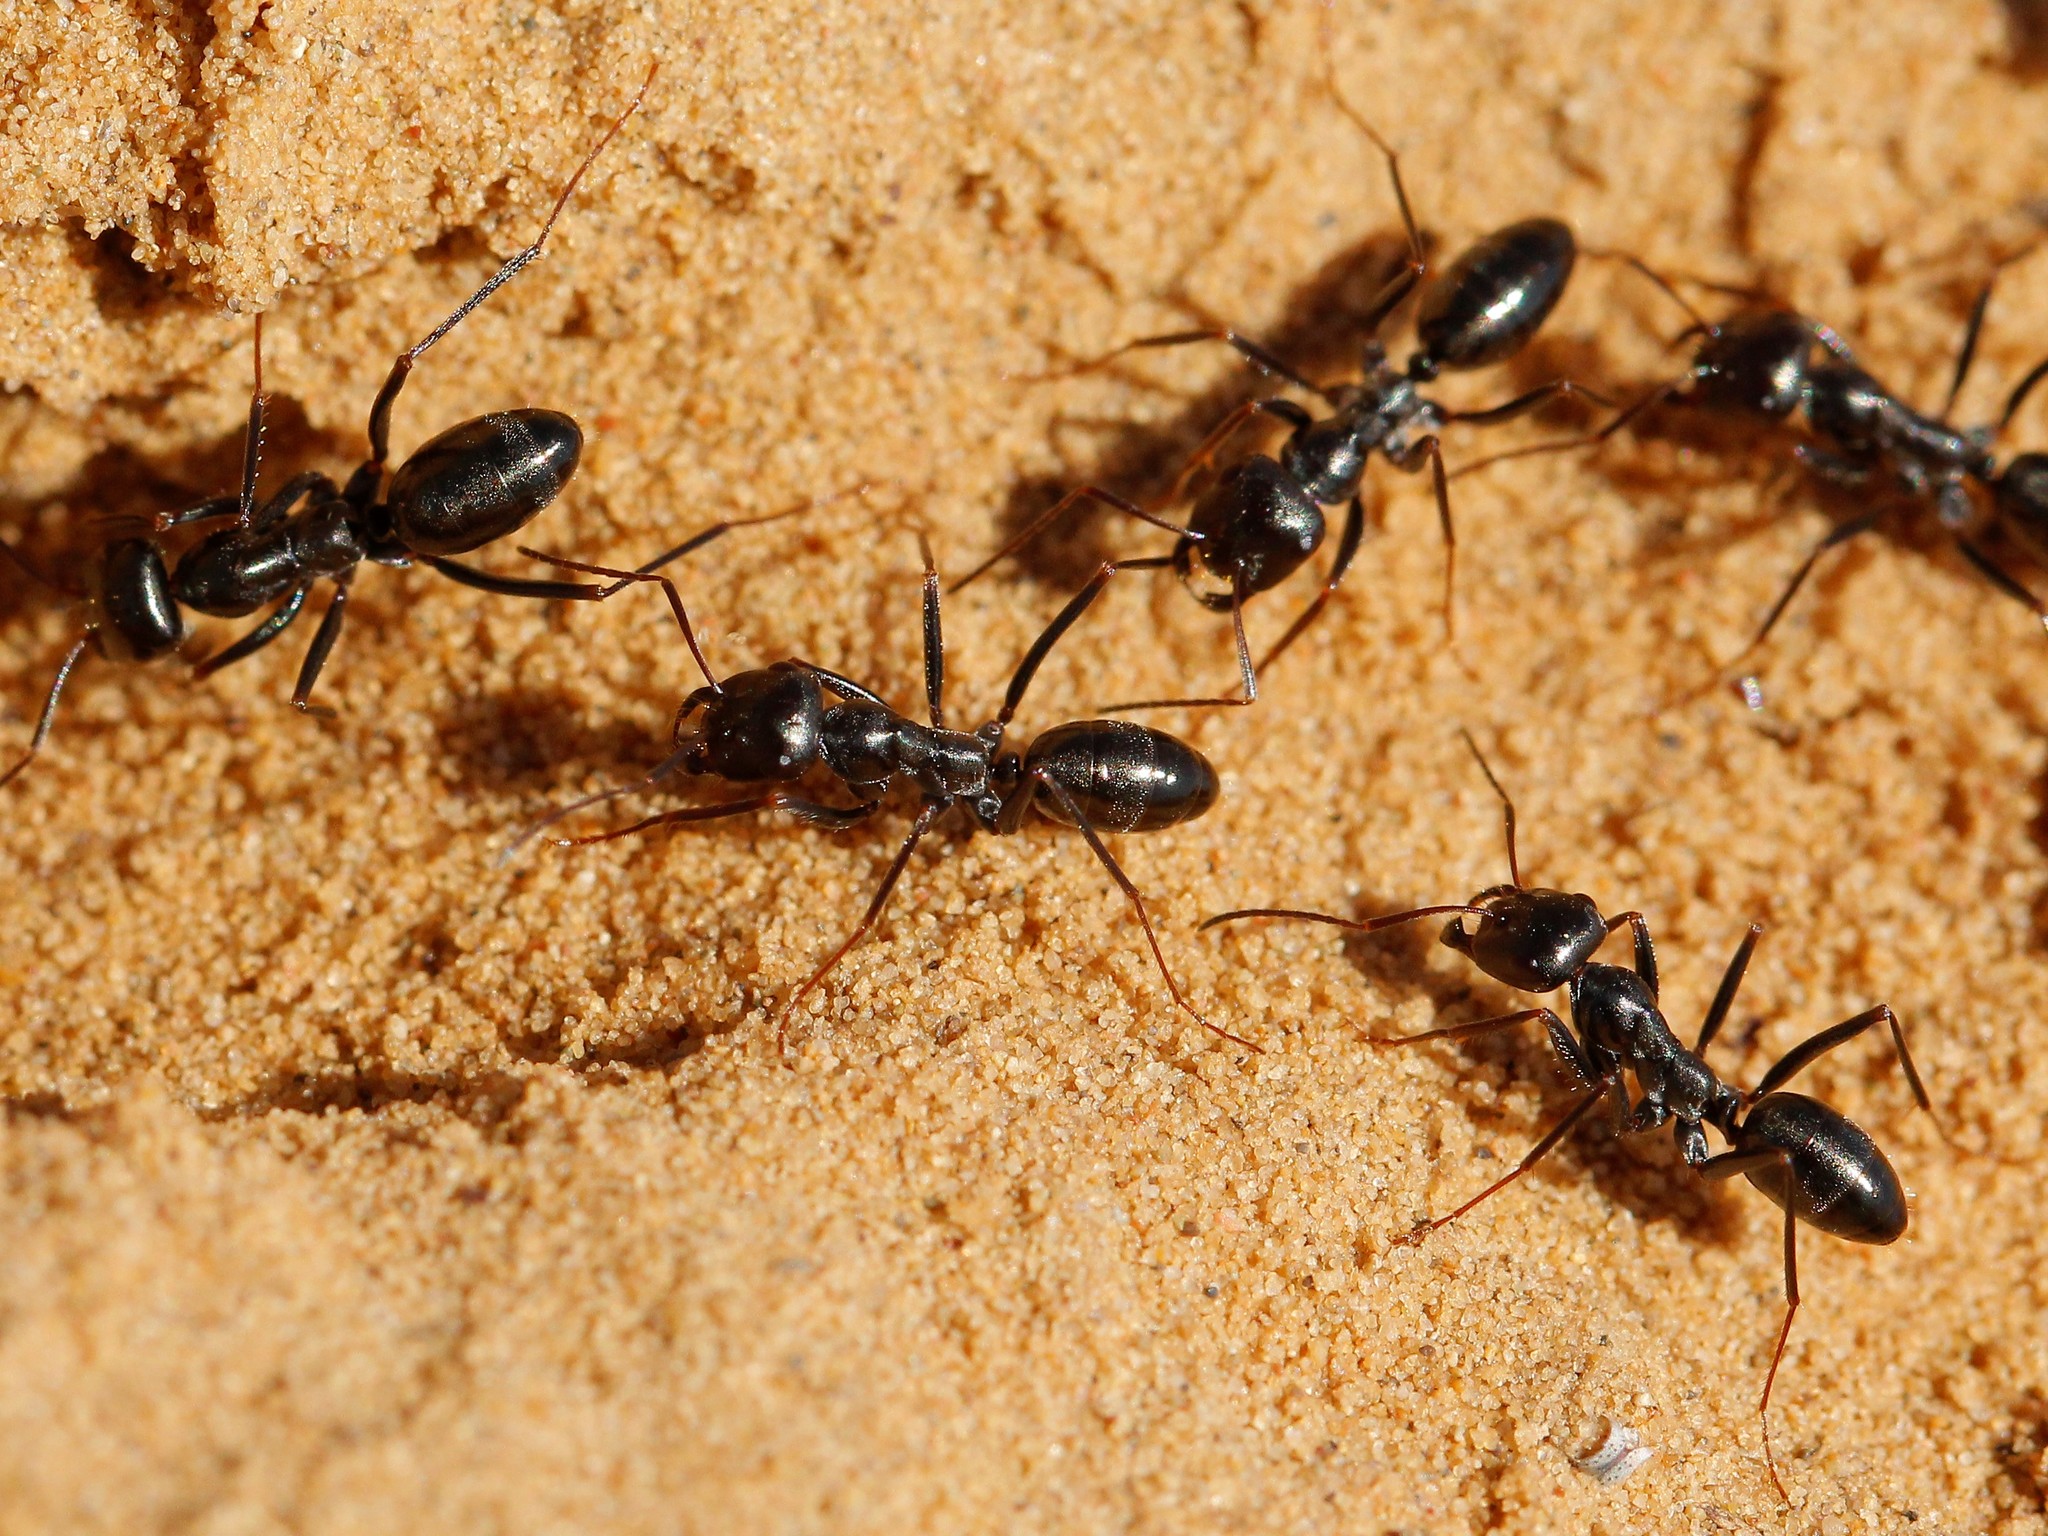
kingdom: Animalia
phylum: Arthropoda
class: Insecta
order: Hymenoptera
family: Formicidae
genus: Cataglyphis
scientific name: Cataglyphis aenescens
